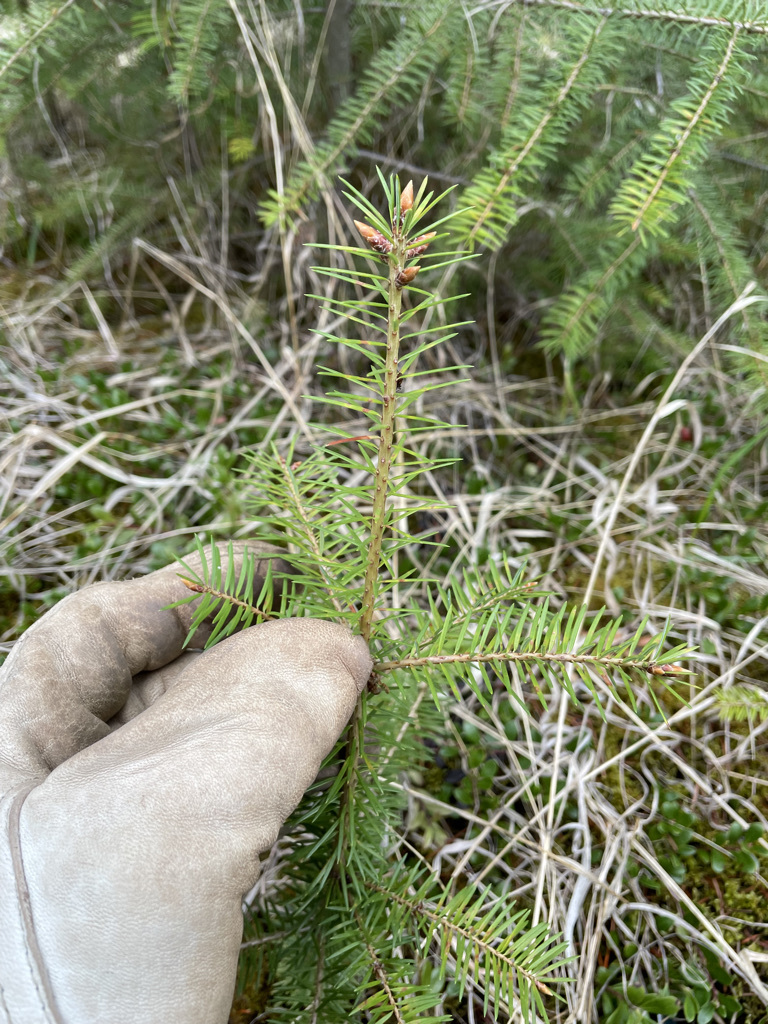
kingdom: Plantae
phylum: Tracheophyta
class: Pinopsida
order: Pinales
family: Pinaceae
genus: Pseudotsuga
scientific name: Pseudotsuga menziesii
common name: Douglas fir
